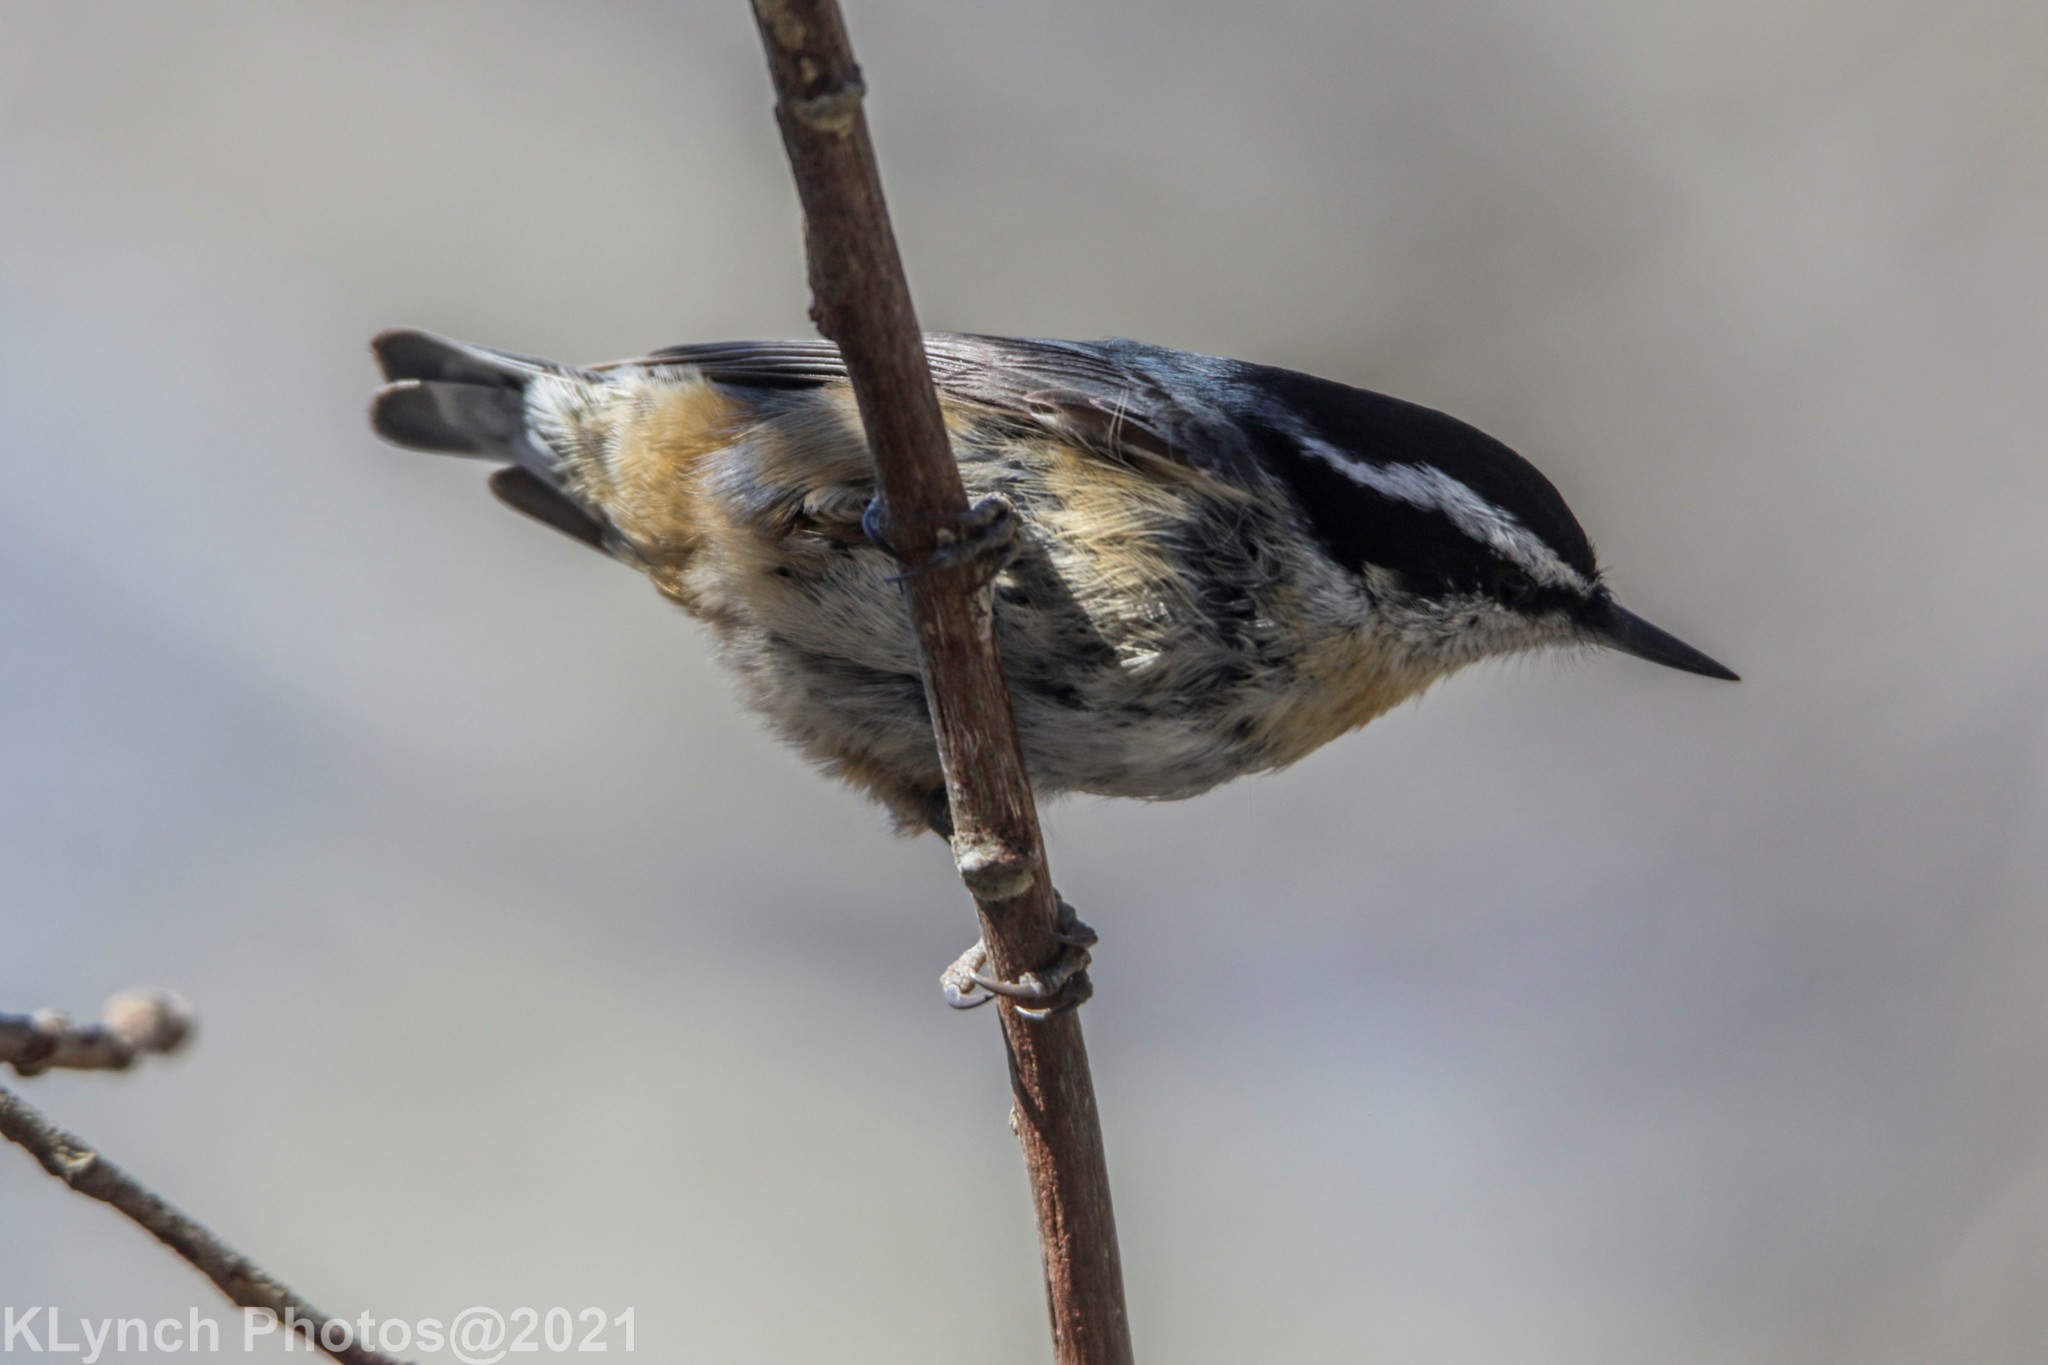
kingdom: Animalia
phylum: Chordata
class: Aves
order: Passeriformes
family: Sittidae
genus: Sitta
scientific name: Sitta canadensis
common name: Red-breasted nuthatch
